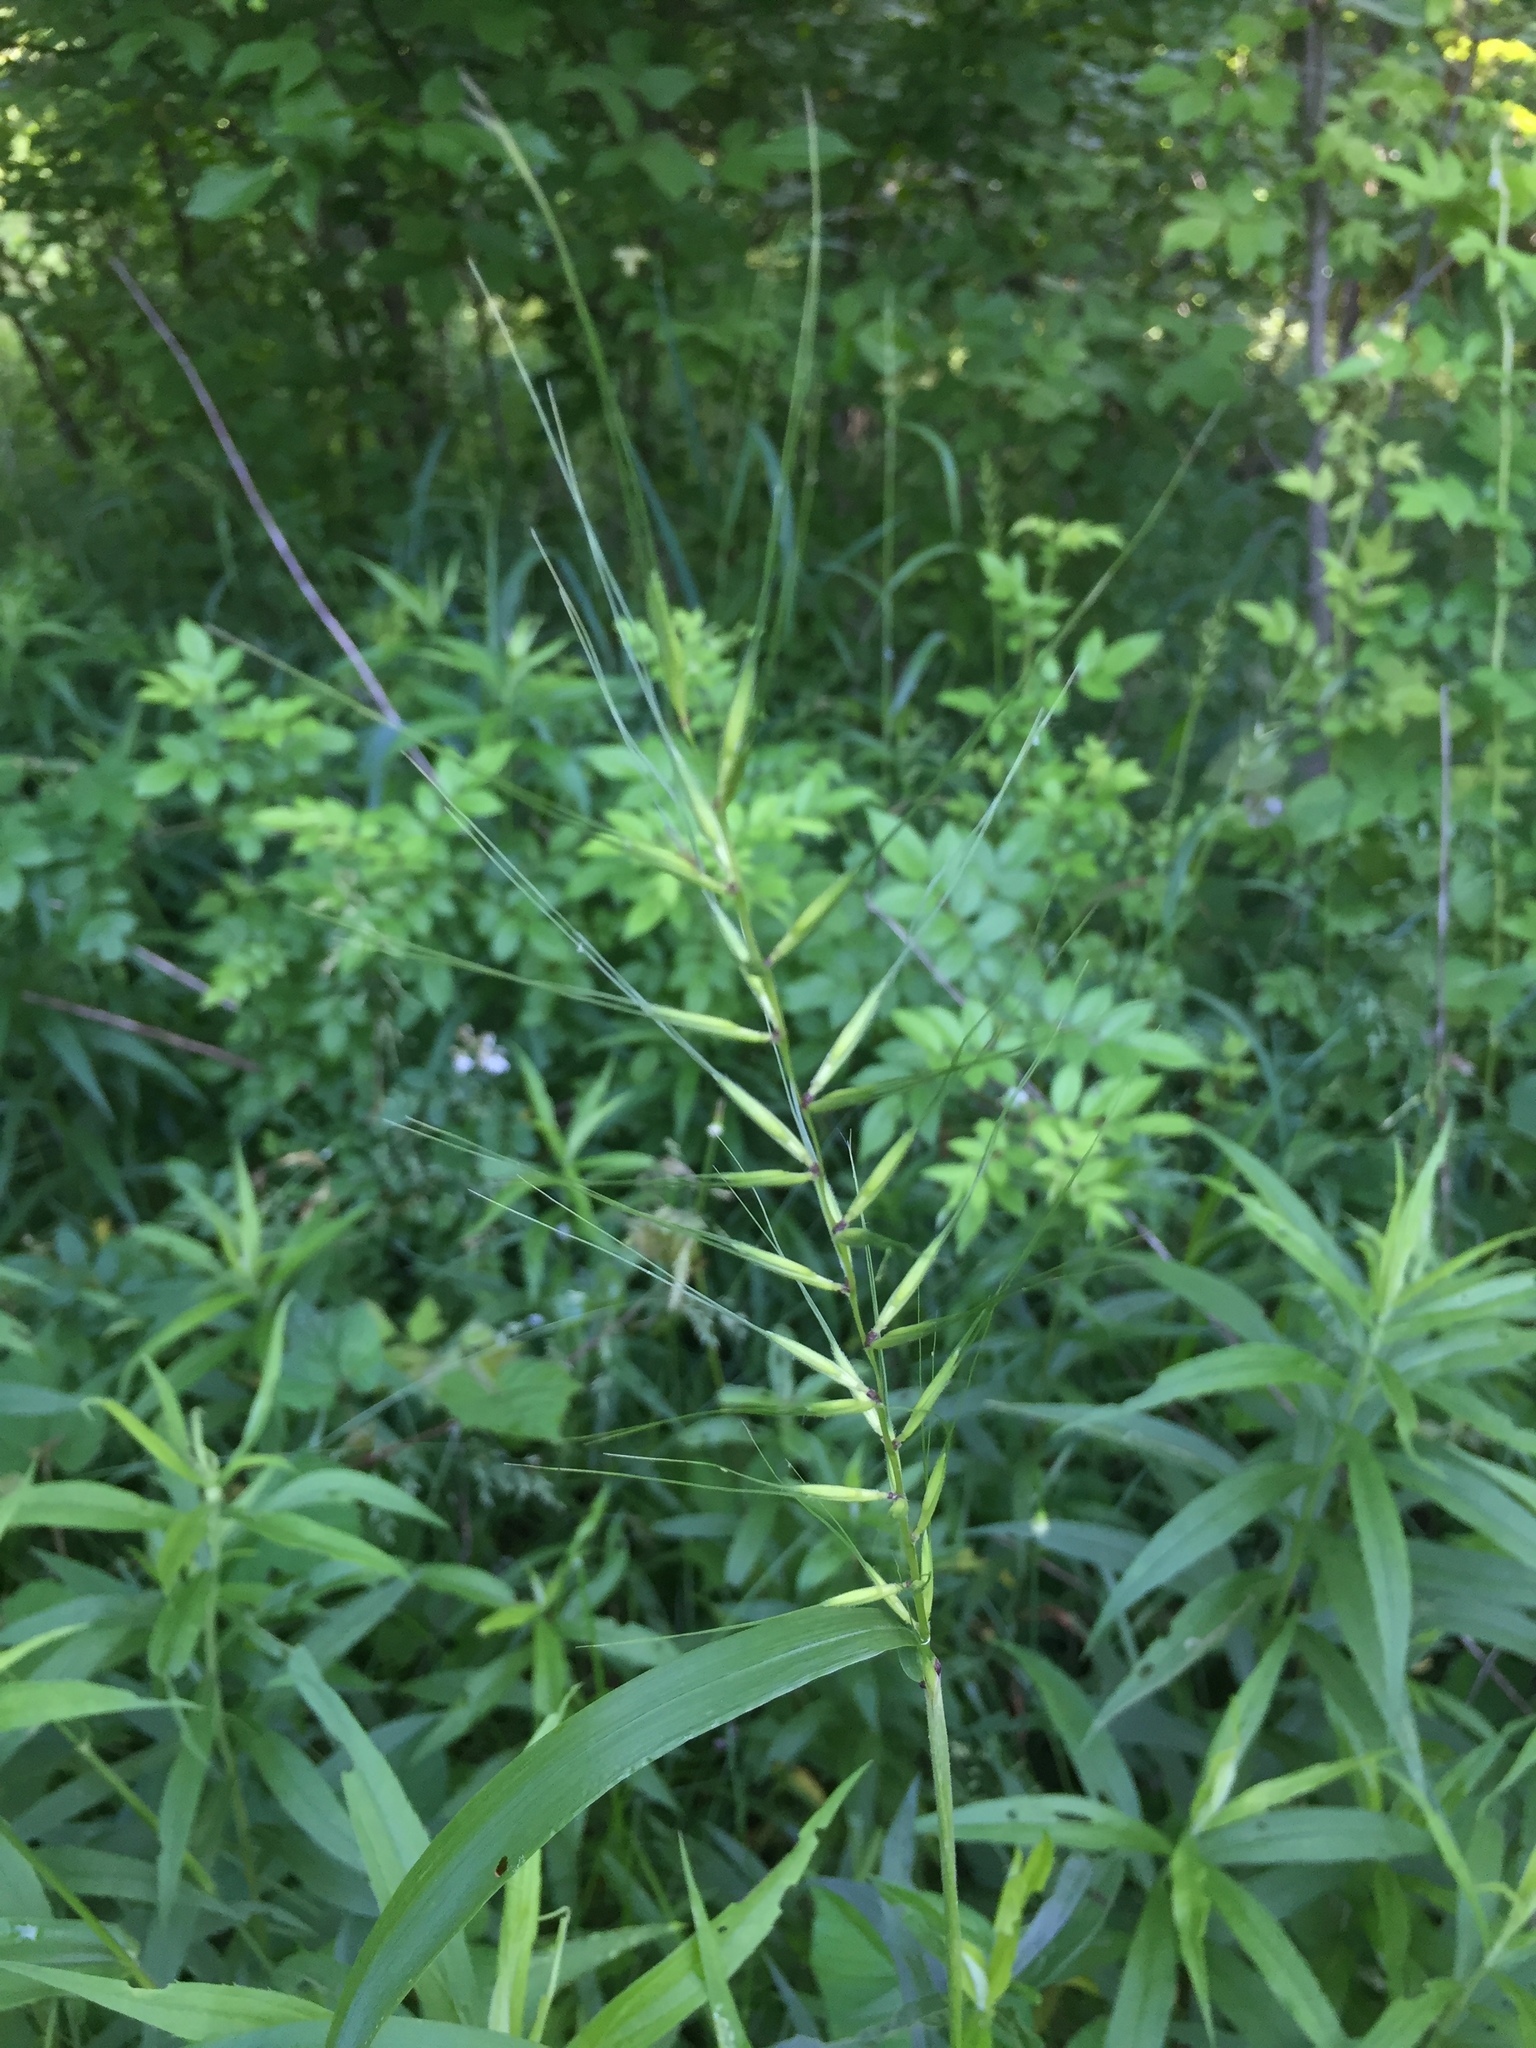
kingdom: Plantae
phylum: Tracheophyta
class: Liliopsida
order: Poales
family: Poaceae
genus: Elymus
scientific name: Elymus hystrix
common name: Bottlebrush grass
